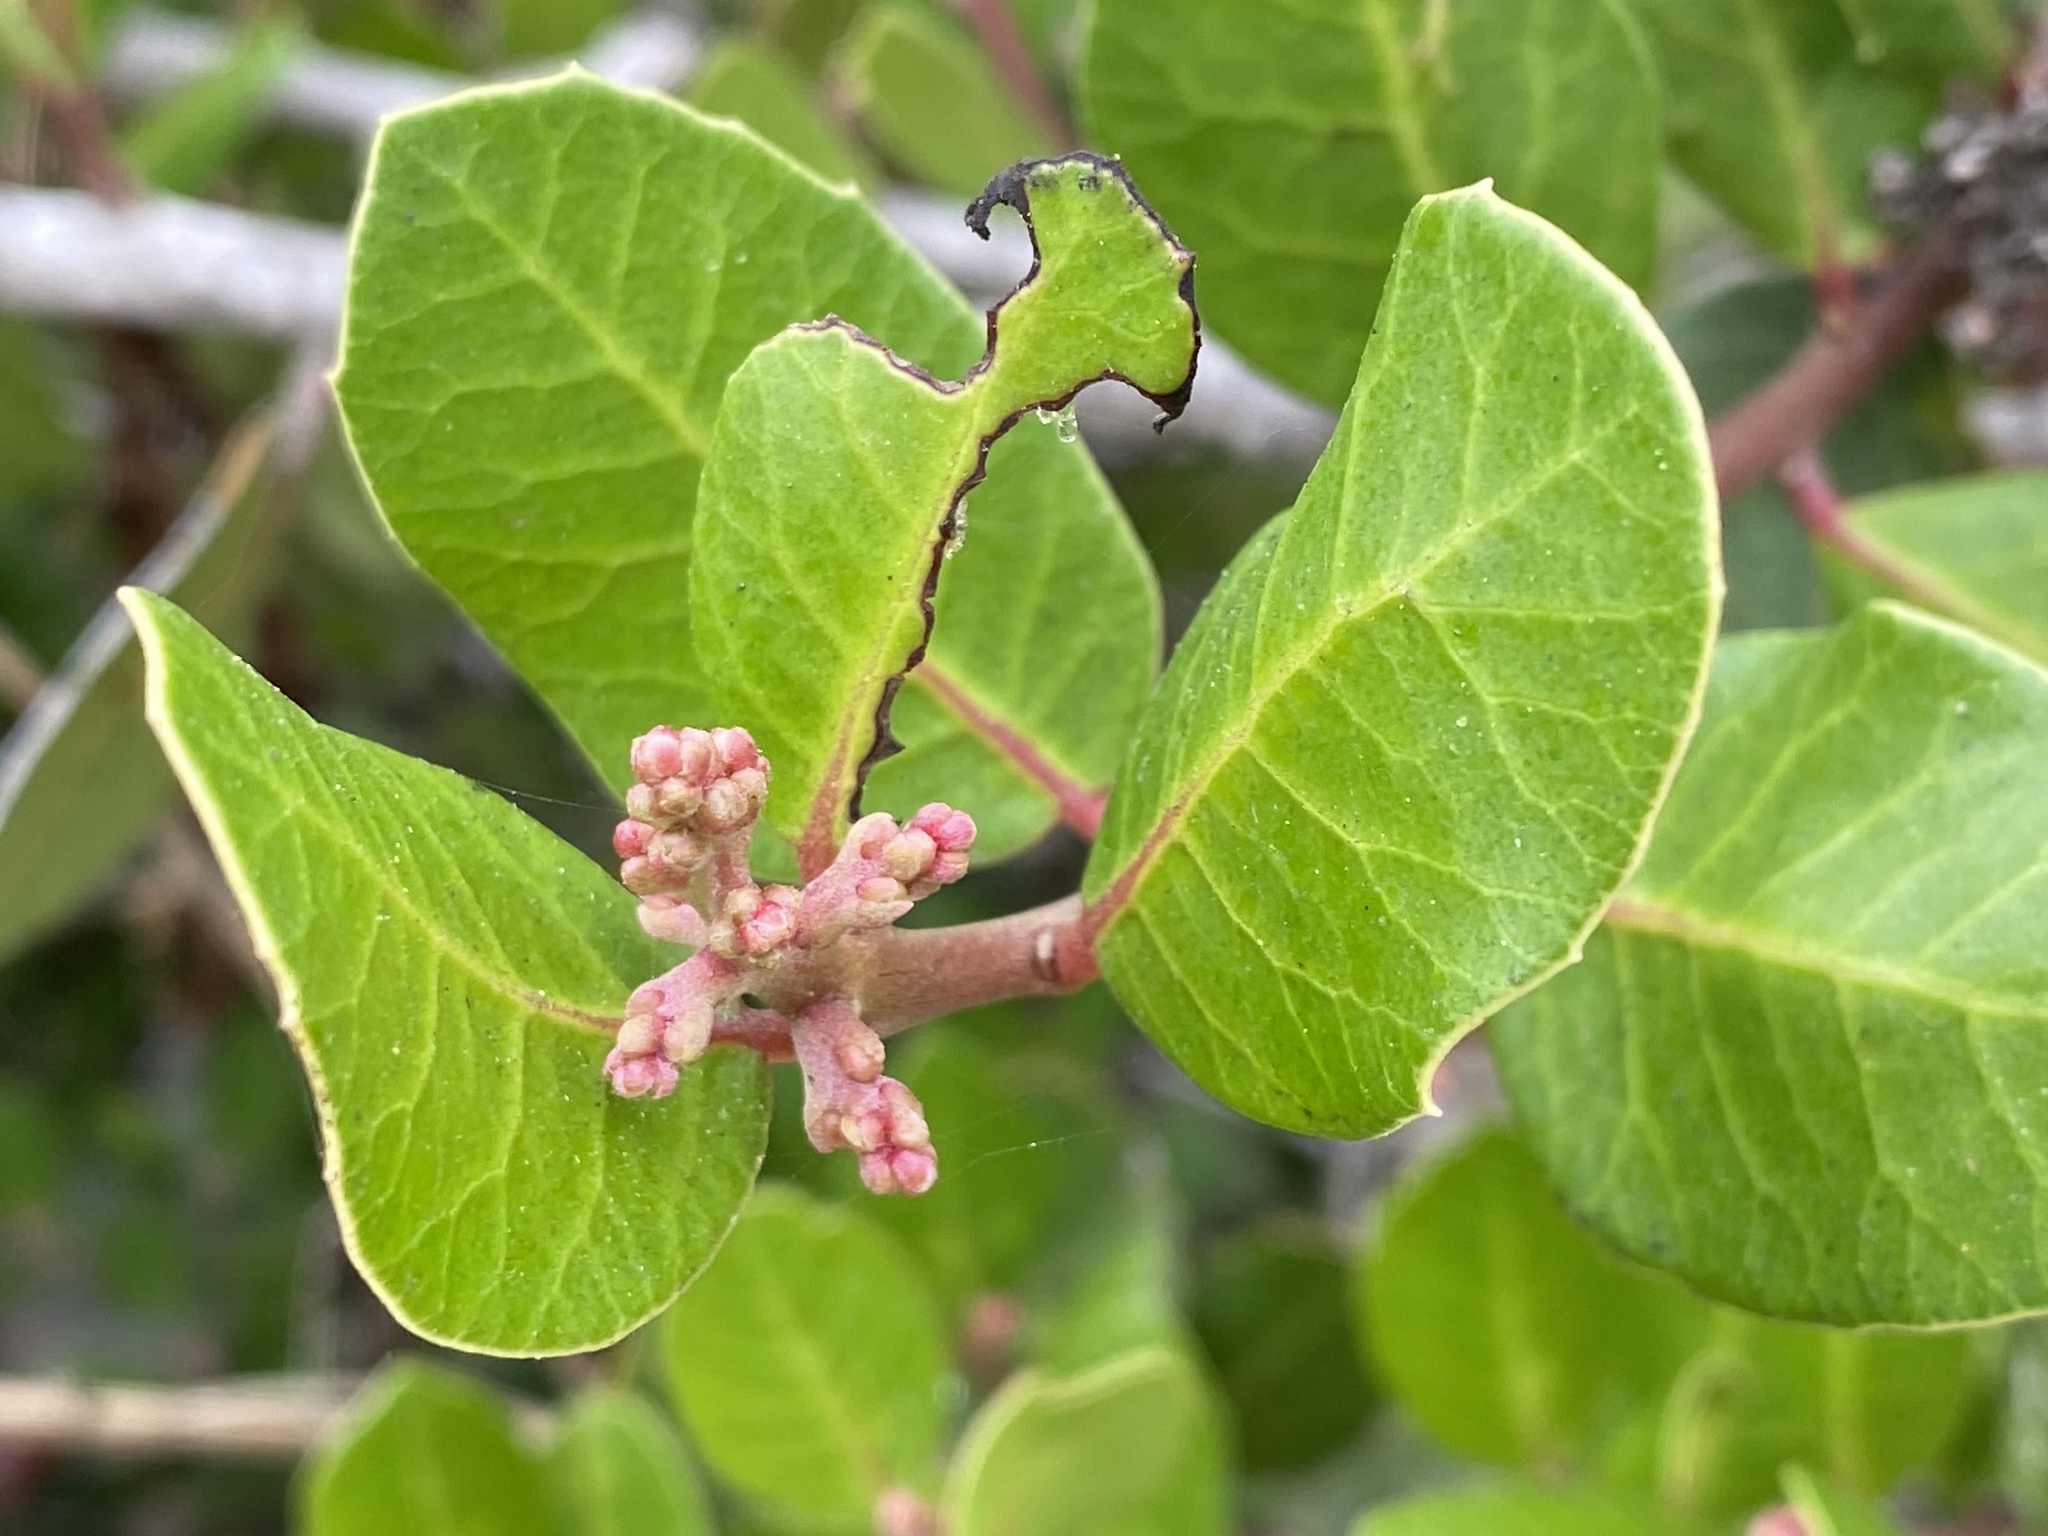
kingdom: Plantae
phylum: Tracheophyta
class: Magnoliopsida
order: Sapindales
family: Anacardiaceae
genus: Rhus
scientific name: Rhus integrifolia
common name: Lemonade sumac
